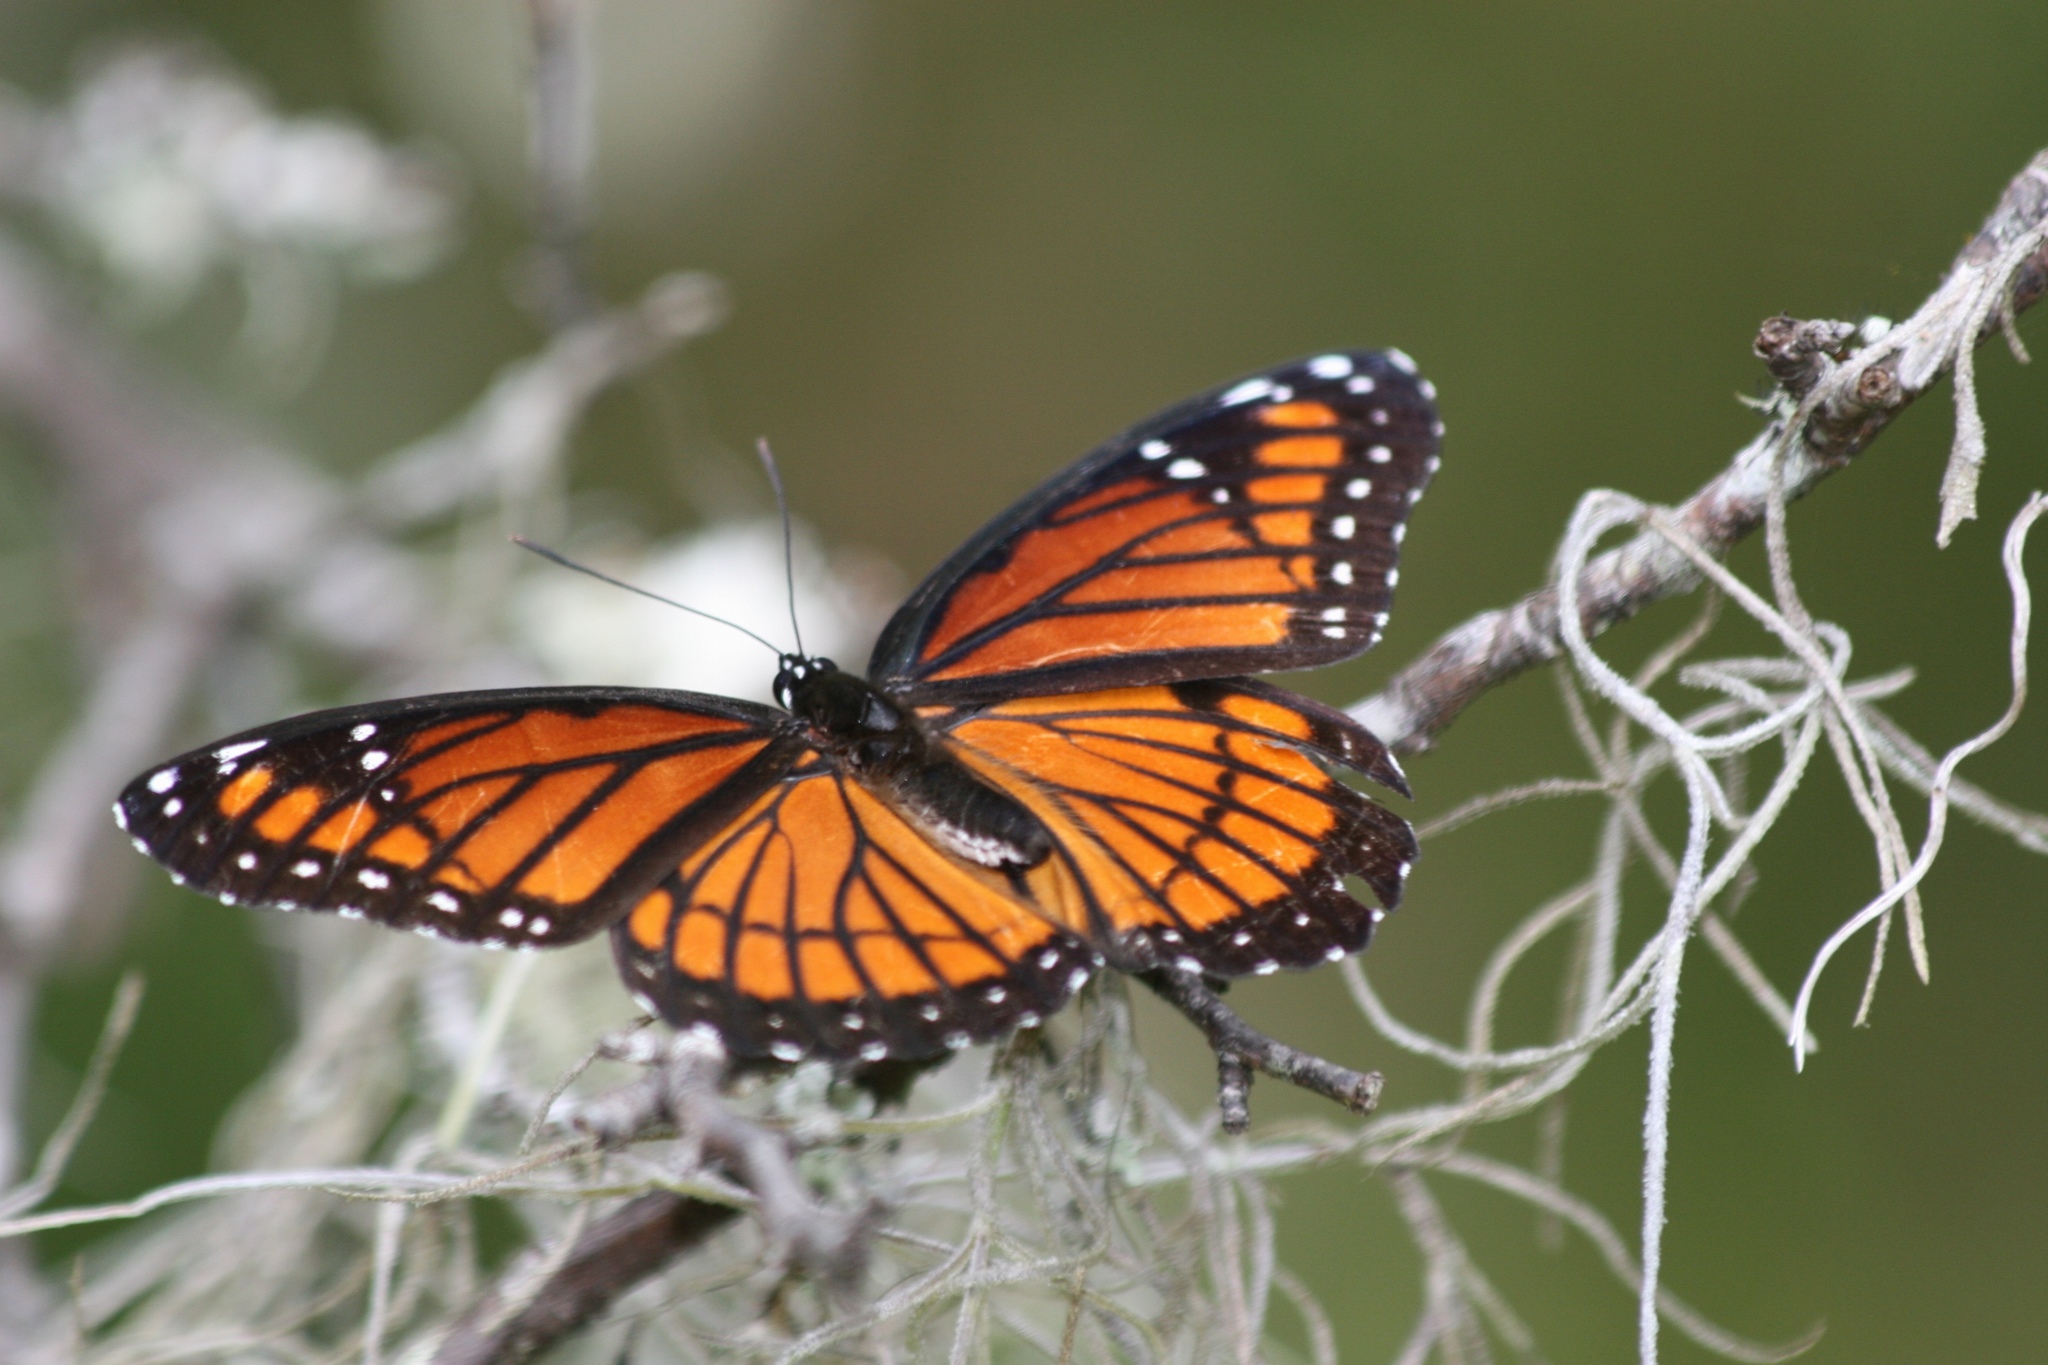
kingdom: Animalia
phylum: Arthropoda
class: Insecta
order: Lepidoptera
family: Nymphalidae
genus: Limenitis
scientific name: Limenitis archippus
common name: Viceroy
